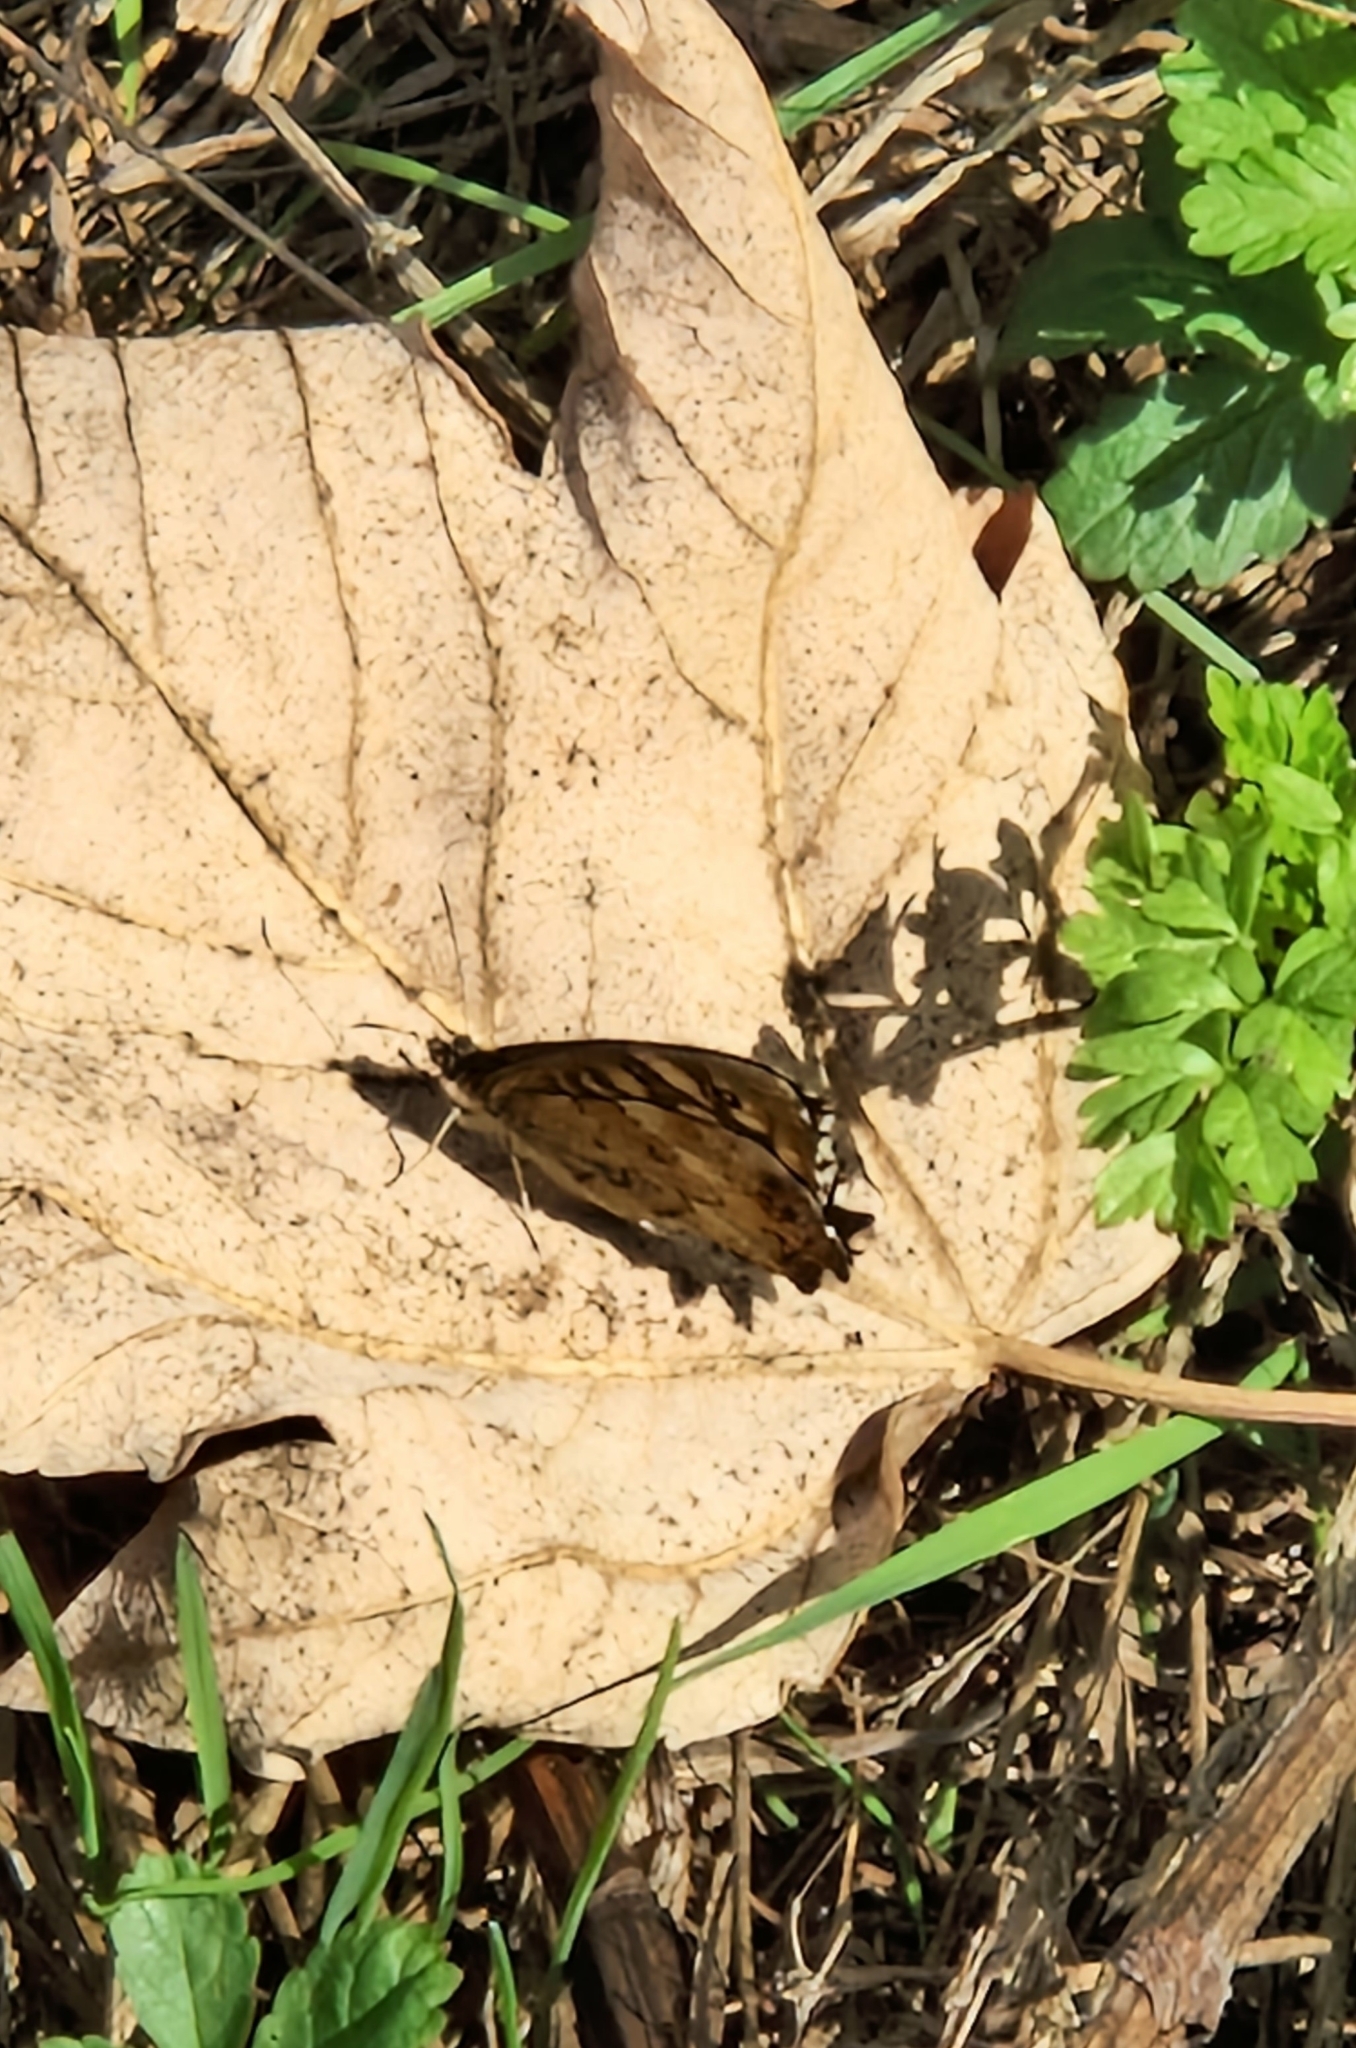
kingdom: Animalia
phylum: Arthropoda
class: Insecta
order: Lepidoptera
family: Nymphalidae
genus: Pararge
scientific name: Pararge aegeria
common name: Speckled wood
